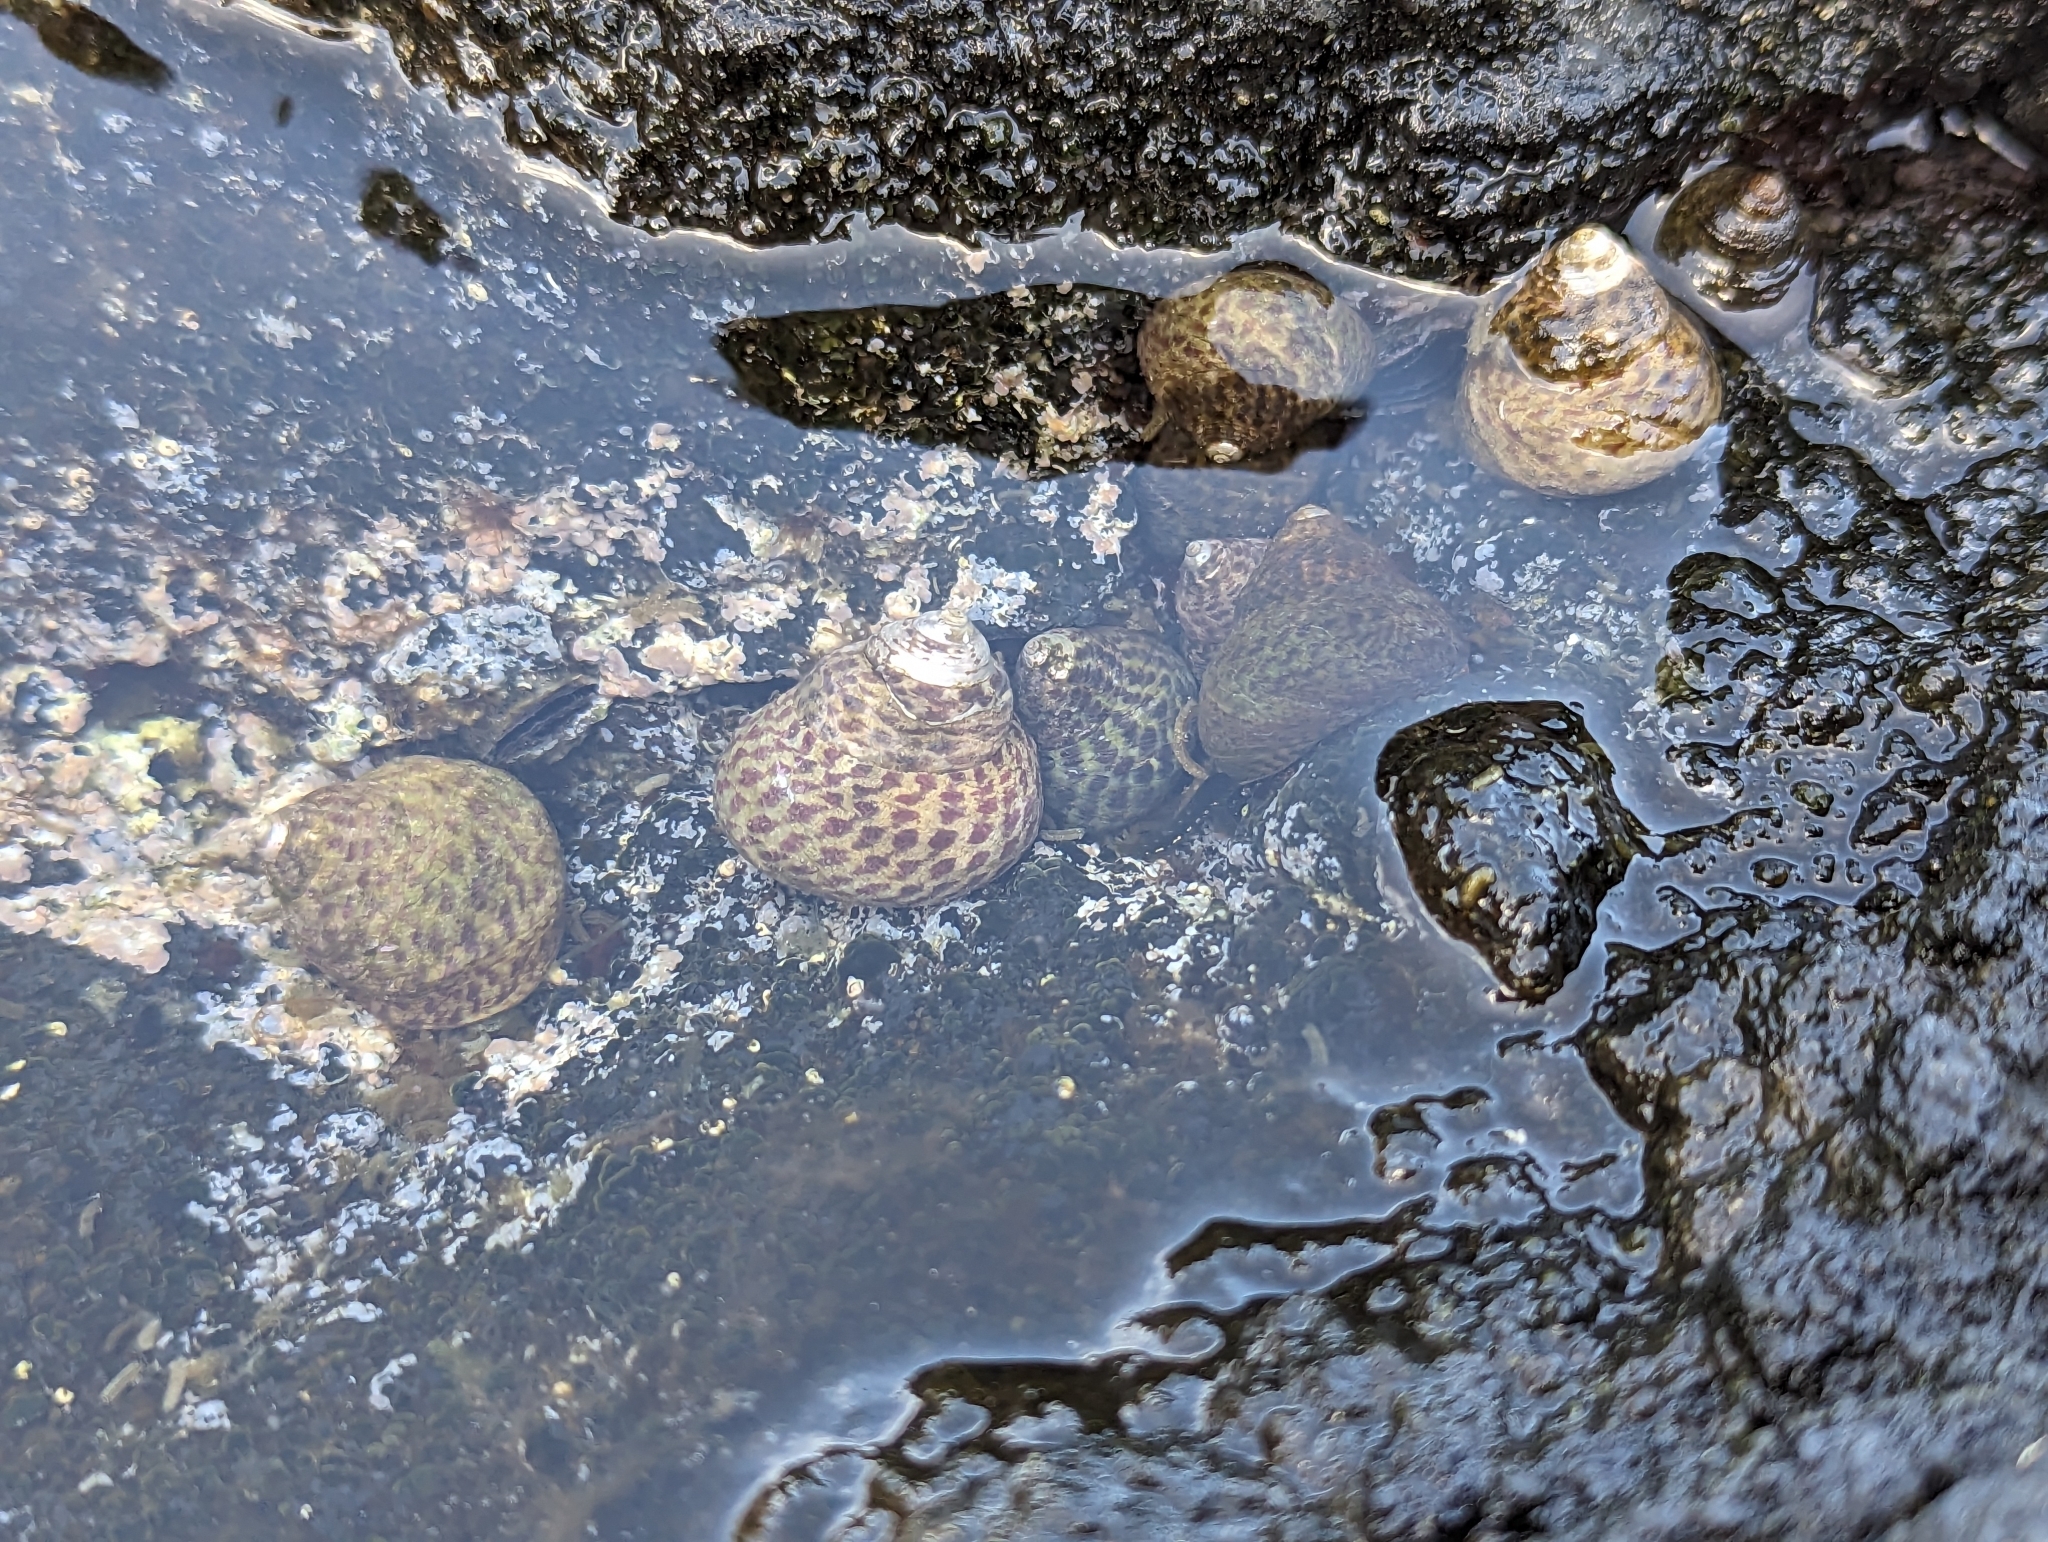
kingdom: Animalia
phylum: Mollusca
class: Gastropoda
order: Trochida
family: Trochidae
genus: Phorcus
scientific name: Phorcus sauciatus
